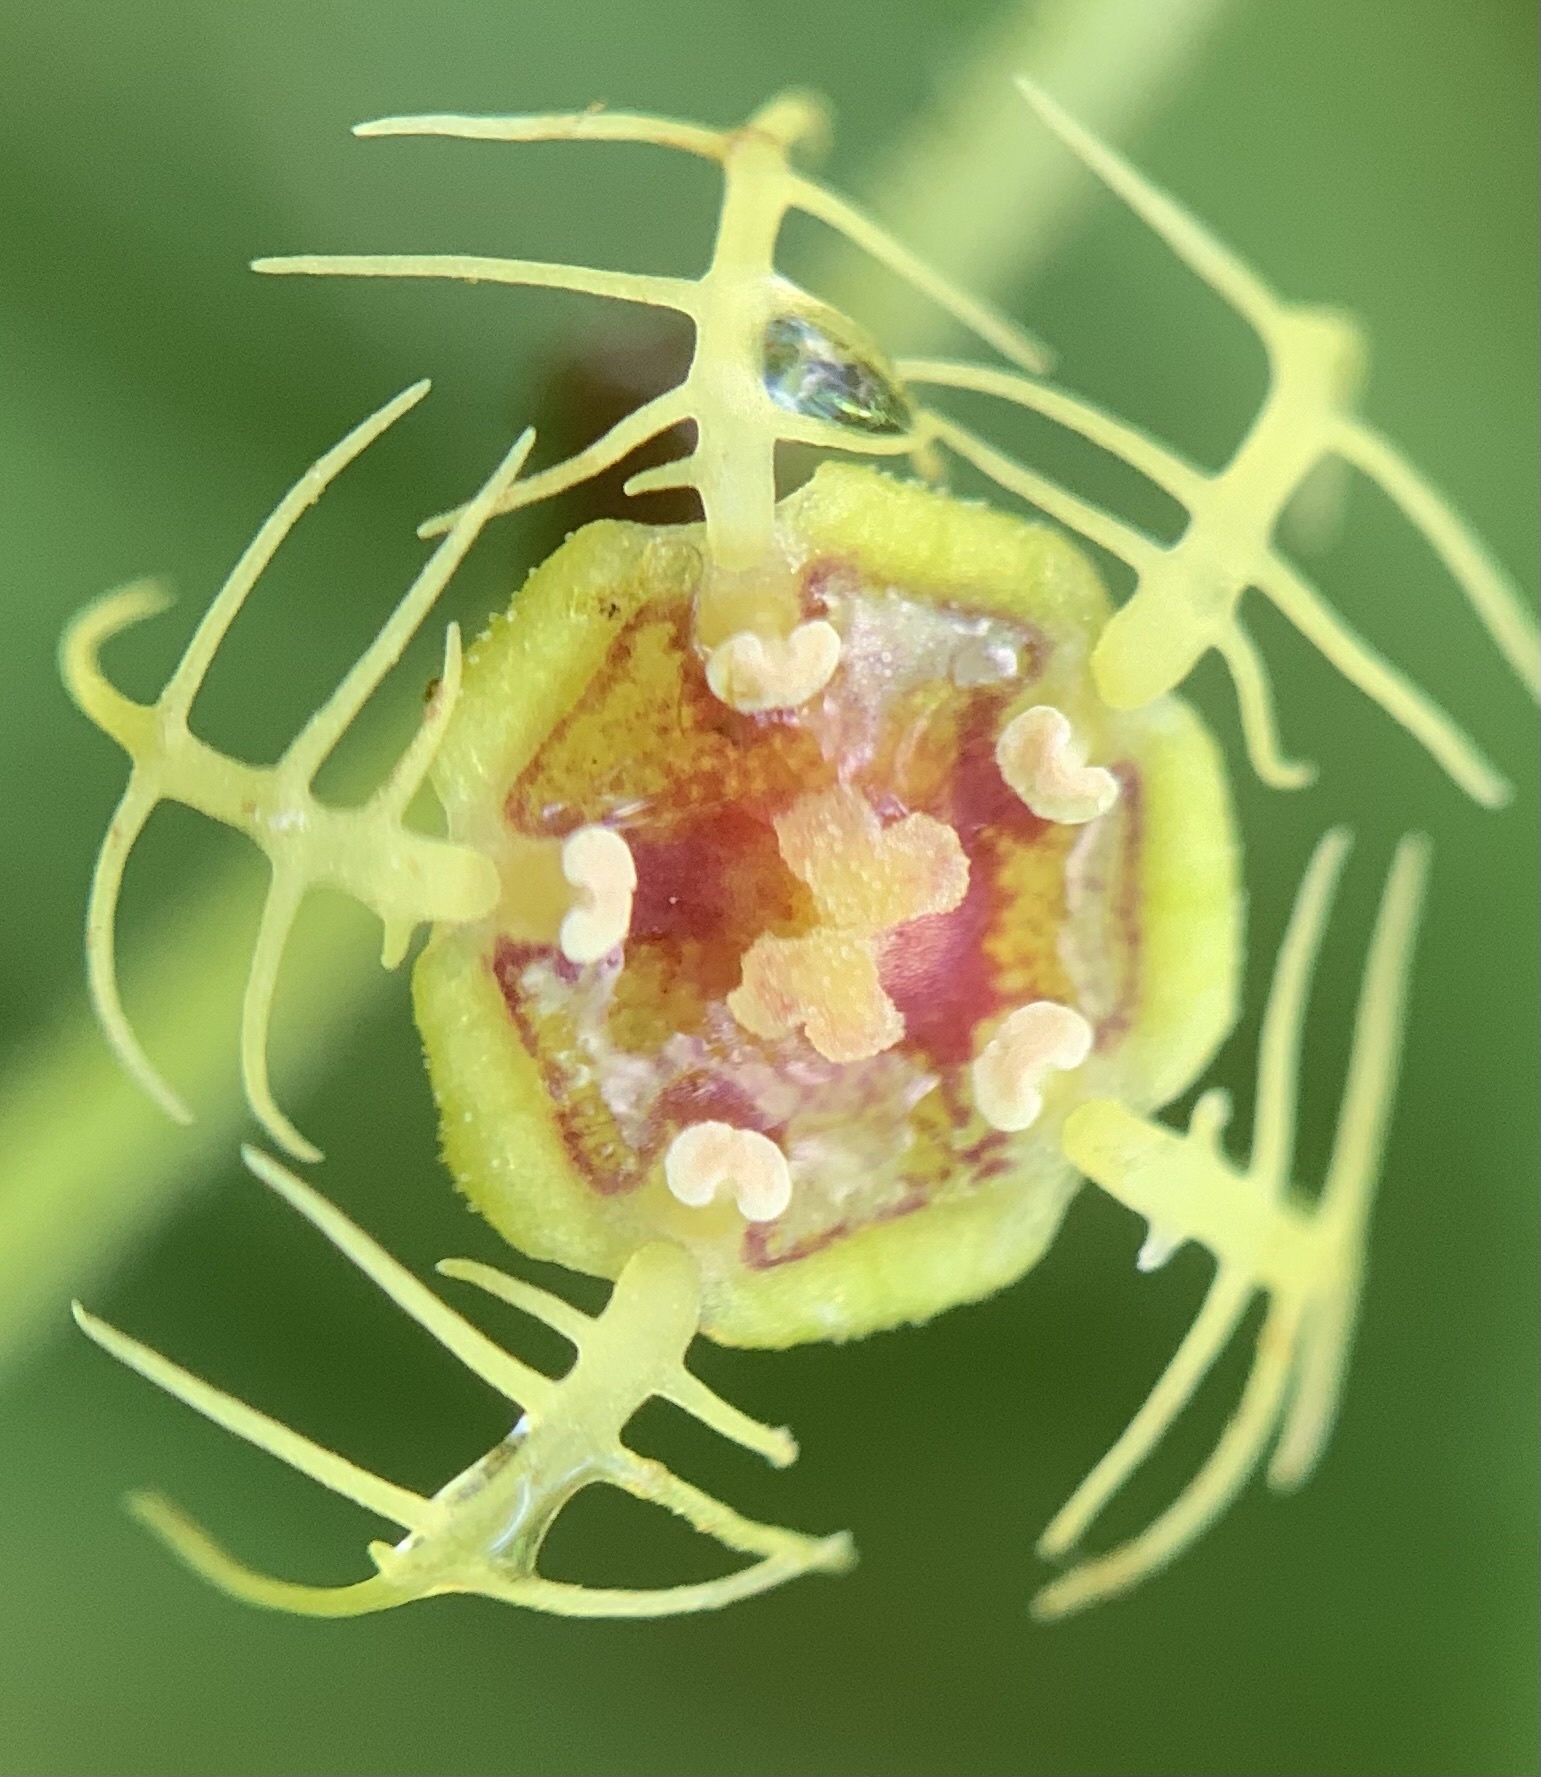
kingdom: Plantae
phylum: Tracheophyta
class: Magnoliopsida
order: Saxifragales
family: Saxifragaceae
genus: Pectiantia
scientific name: Pectiantia pentandra
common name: Alpine bishop's-cap
